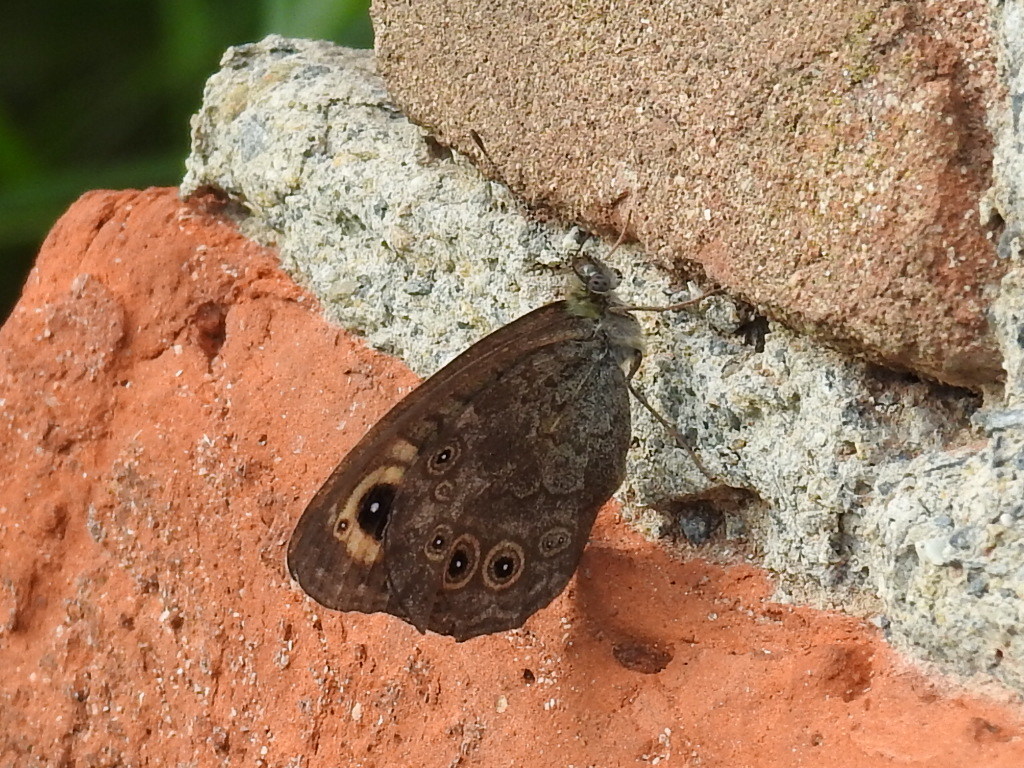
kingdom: Animalia
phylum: Arthropoda
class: Insecta
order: Lepidoptera
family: Nymphalidae
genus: Pararge
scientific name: Pararge Lasiommata maera
